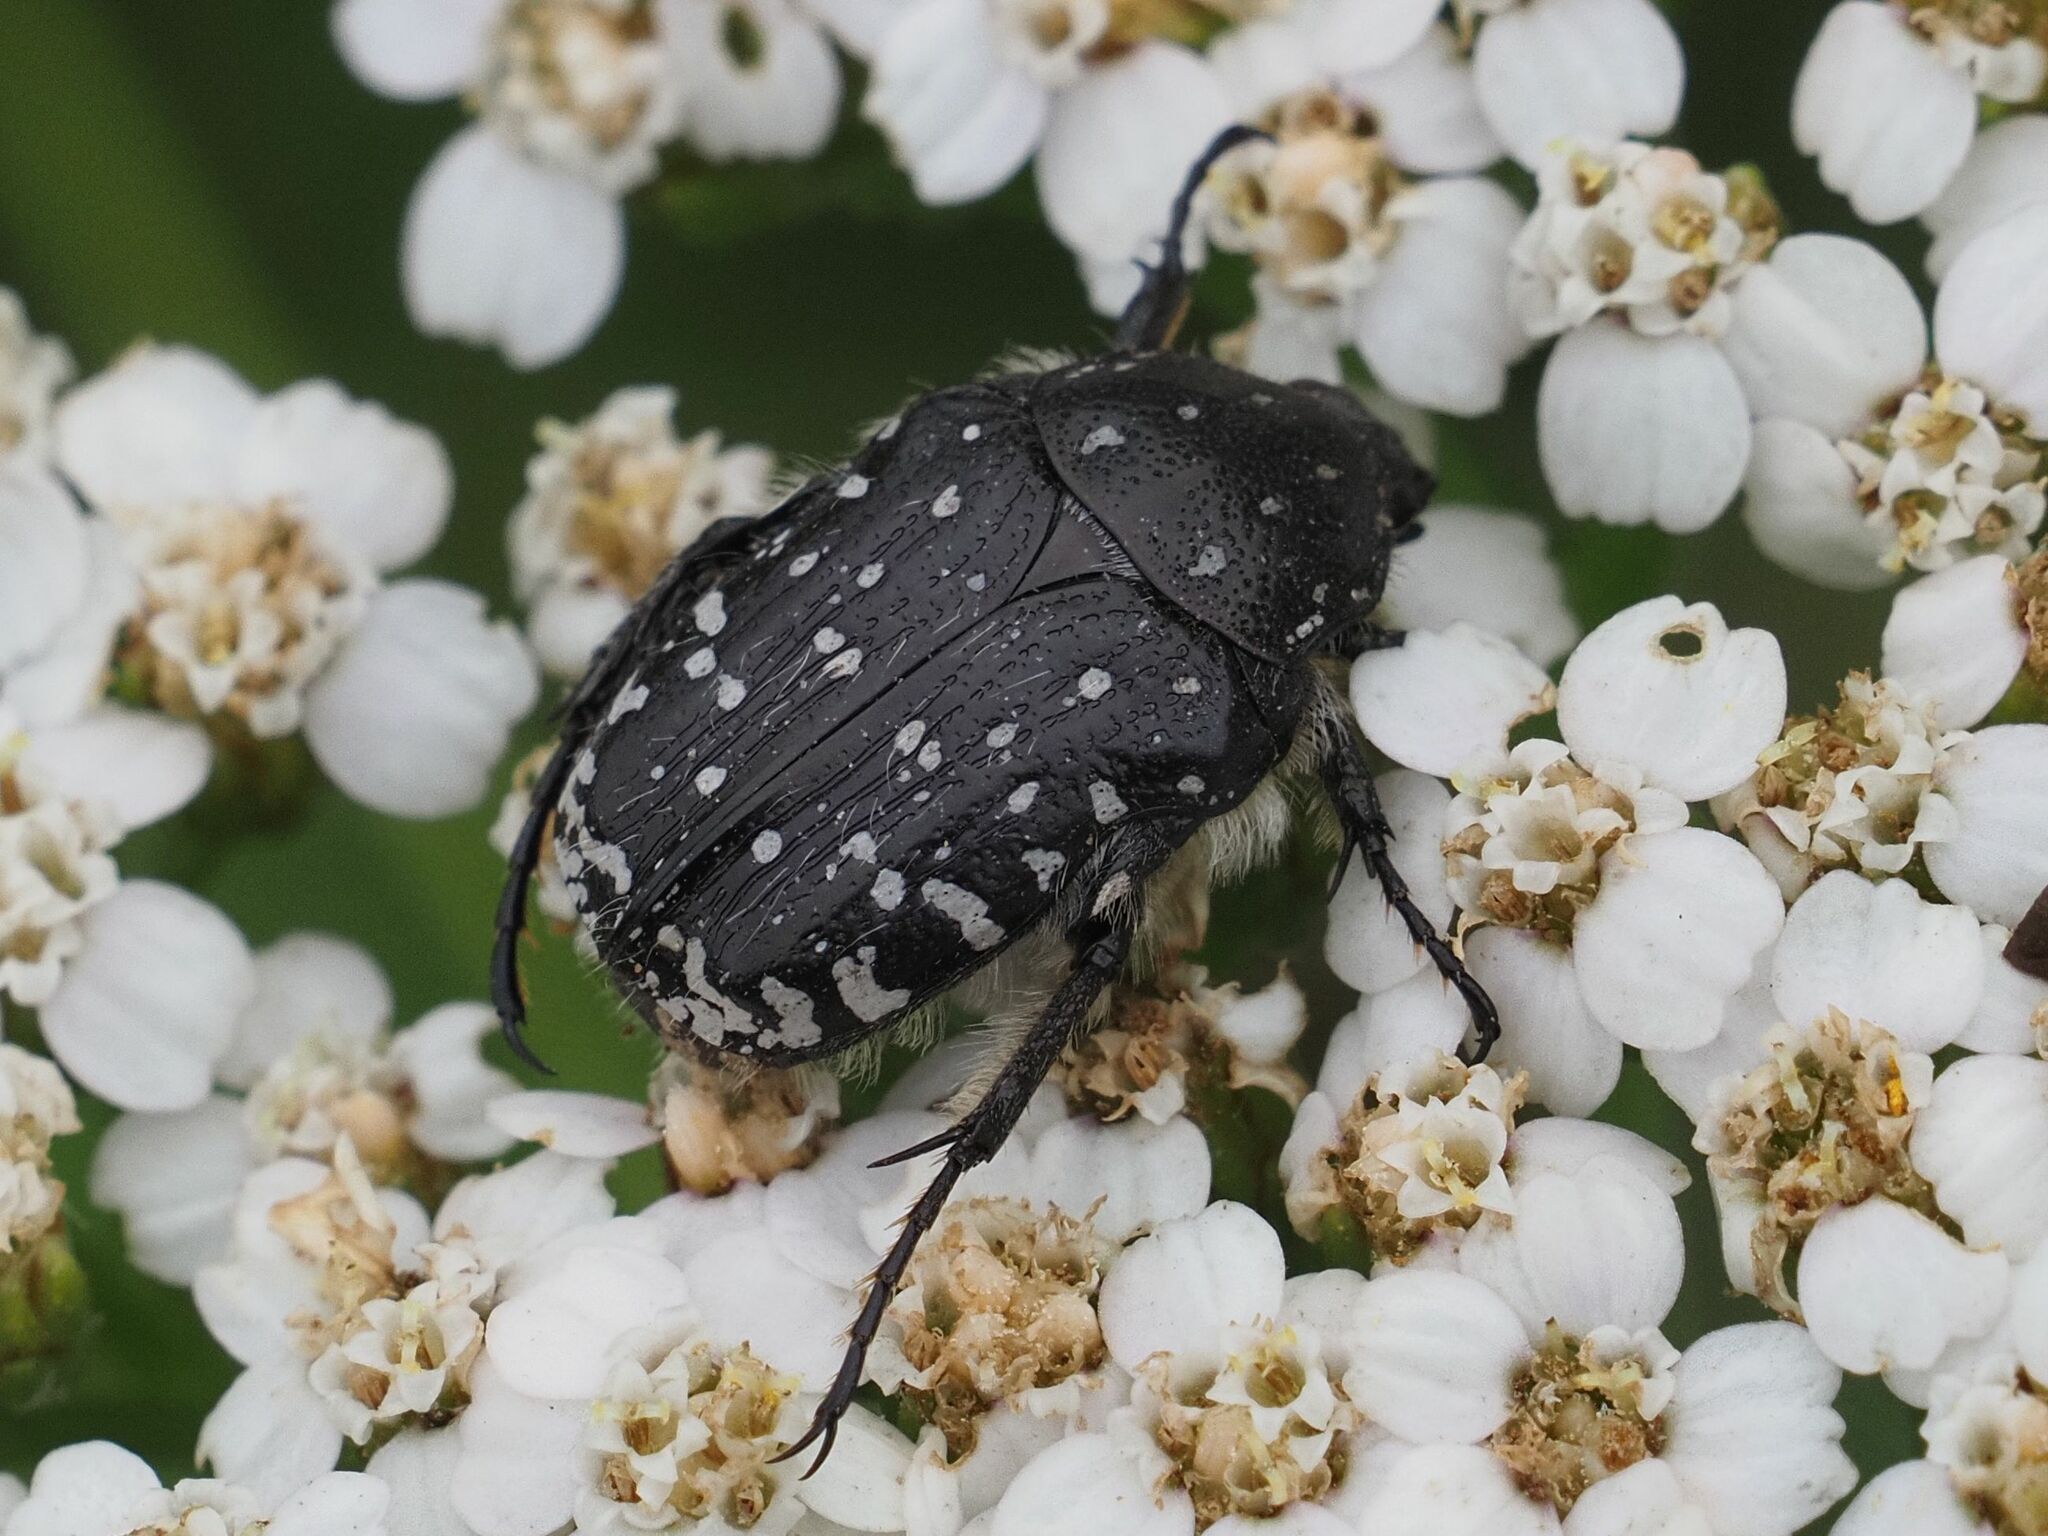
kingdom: Animalia
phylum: Arthropoda
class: Insecta
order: Coleoptera
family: Scarabaeidae
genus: Oxythyrea
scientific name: Oxythyrea funesta
